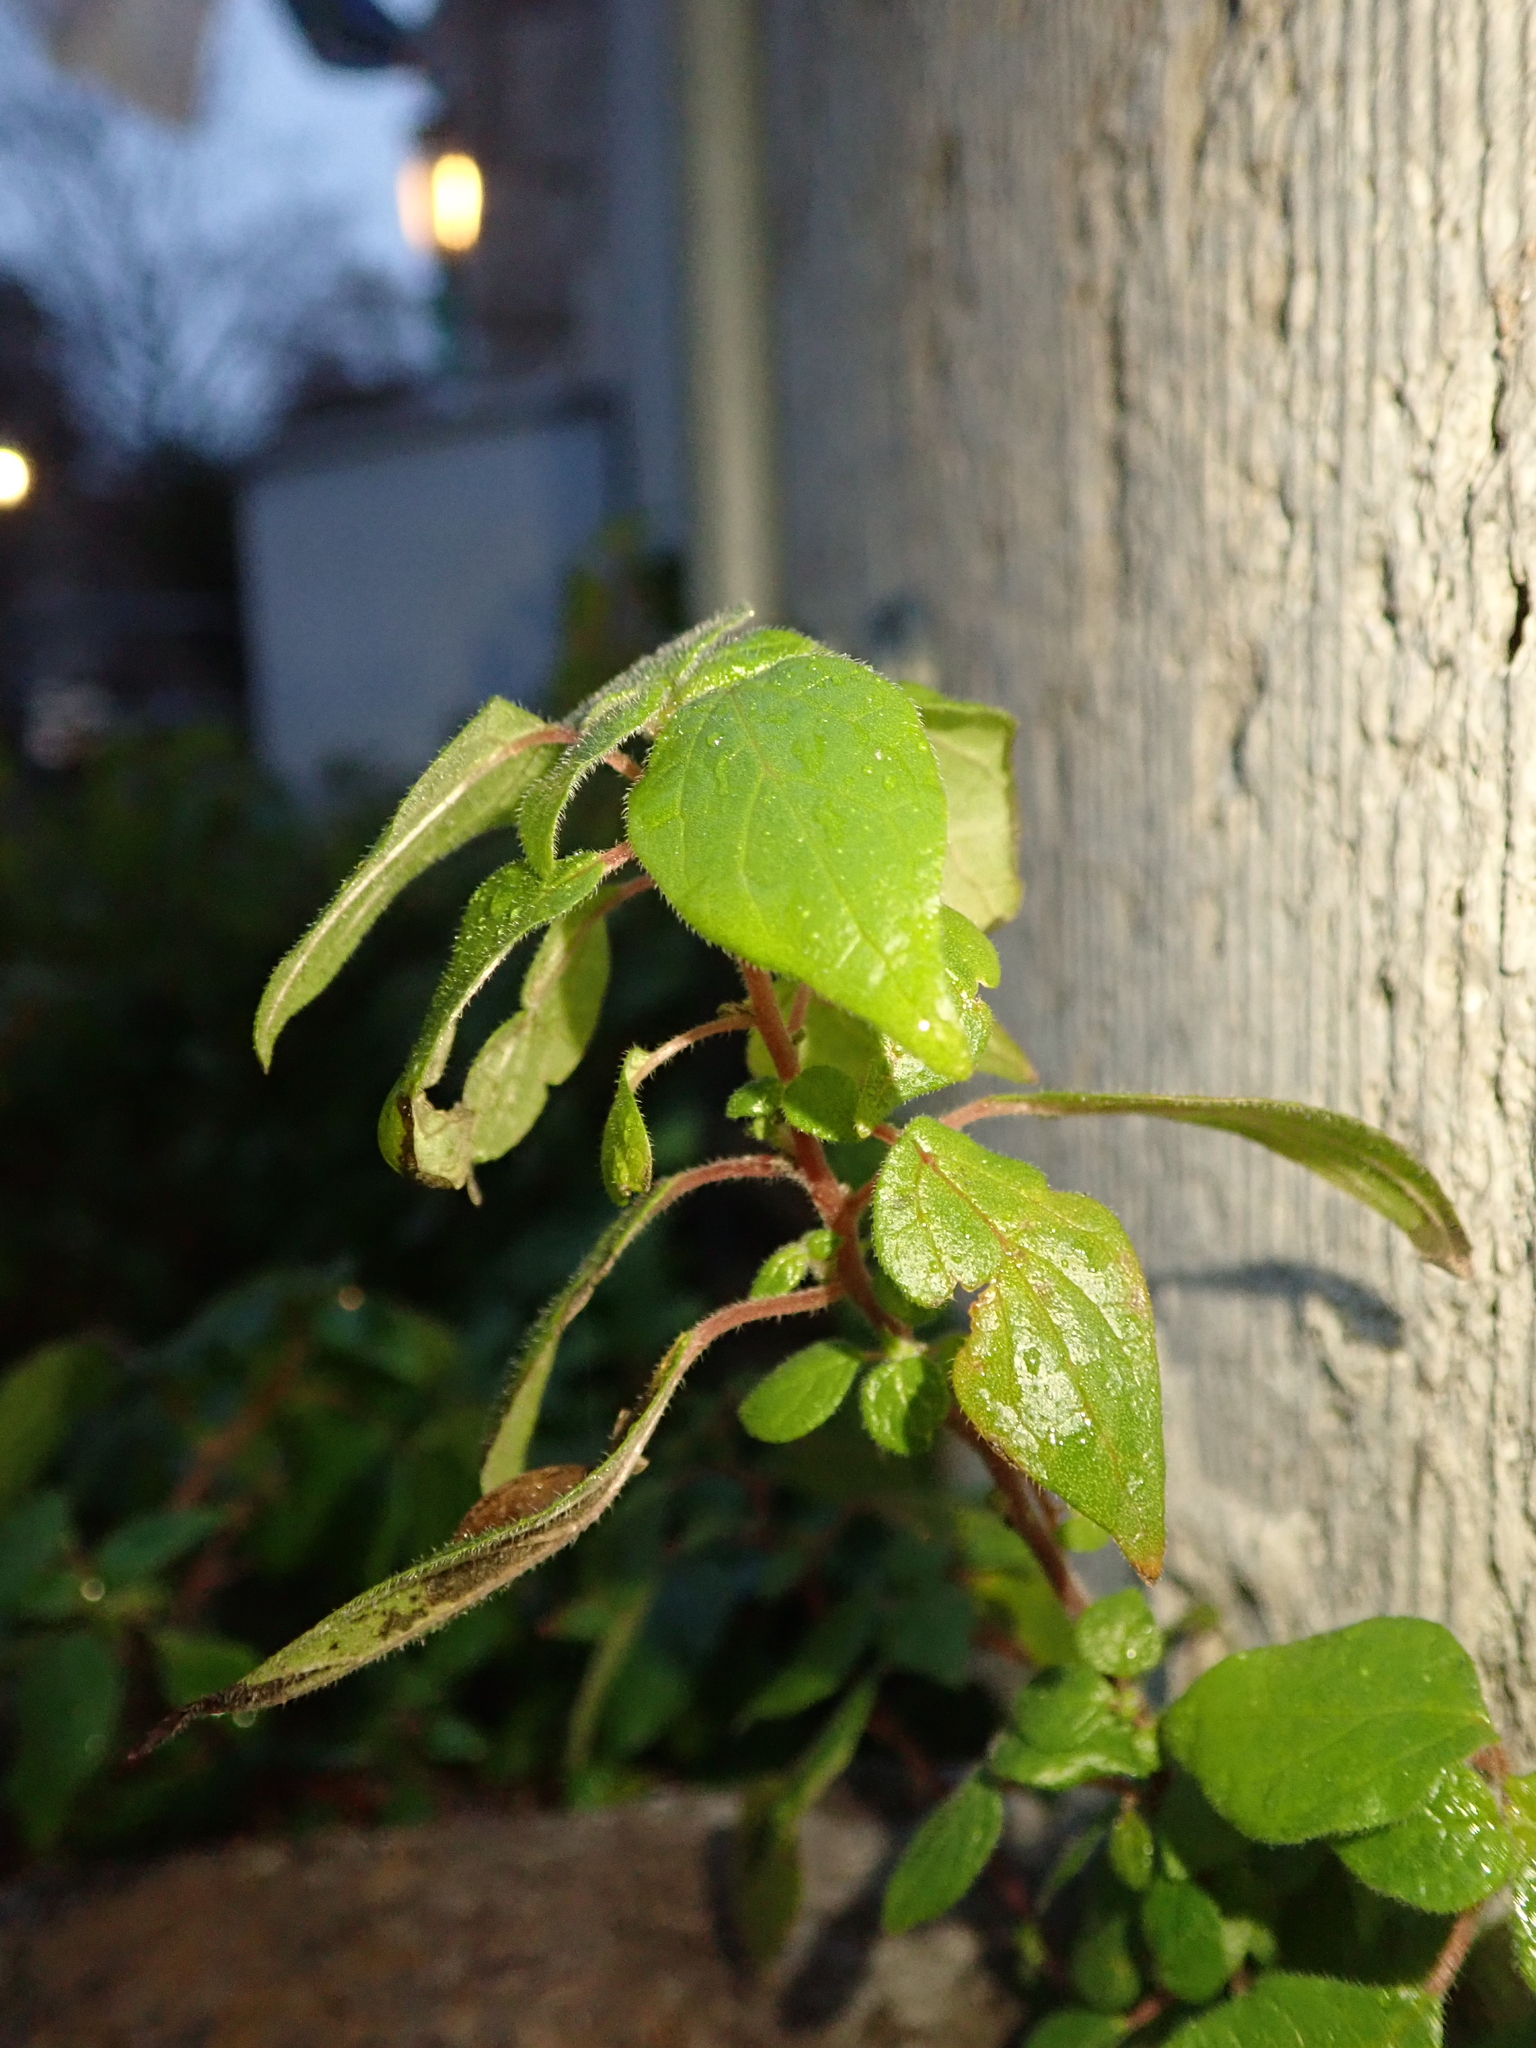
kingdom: Plantae
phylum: Tracheophyta
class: Magnoliopsida
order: Rosales
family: Urticaceae
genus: Parietaria
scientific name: Parietaria judaica
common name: Pellitory-of-the-wall
